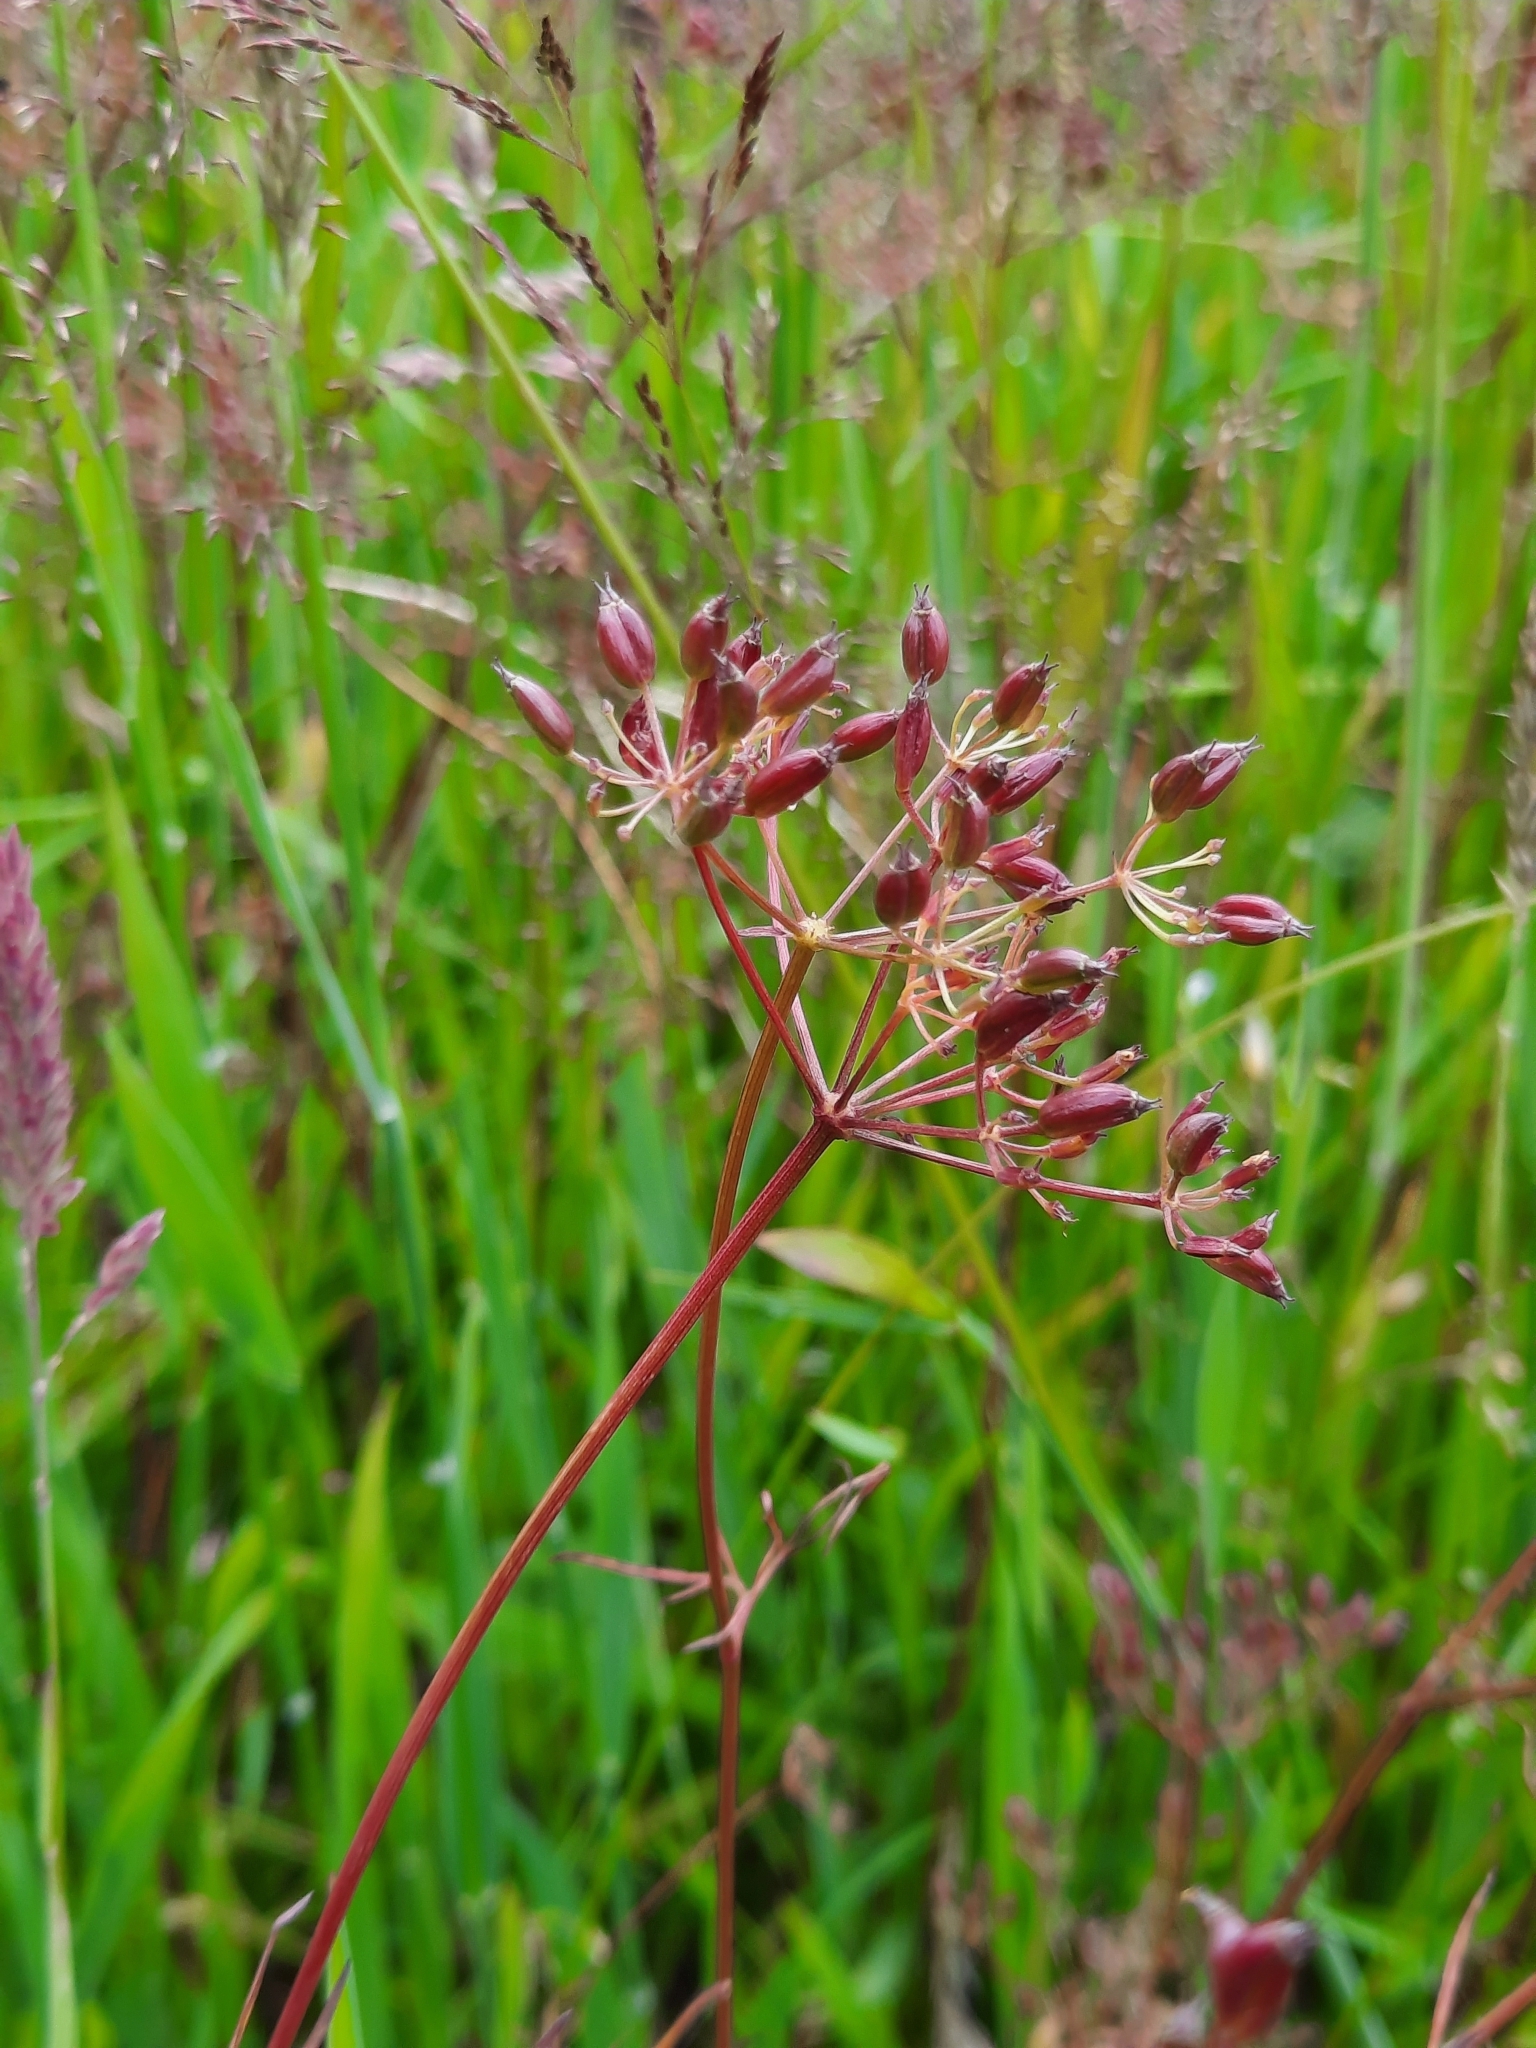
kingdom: Plantae
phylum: Tracheophyta
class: Magnoliopsida
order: Apiales
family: Apiaceae
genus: Conopodium
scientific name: Conopodium majus
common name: Pignut
